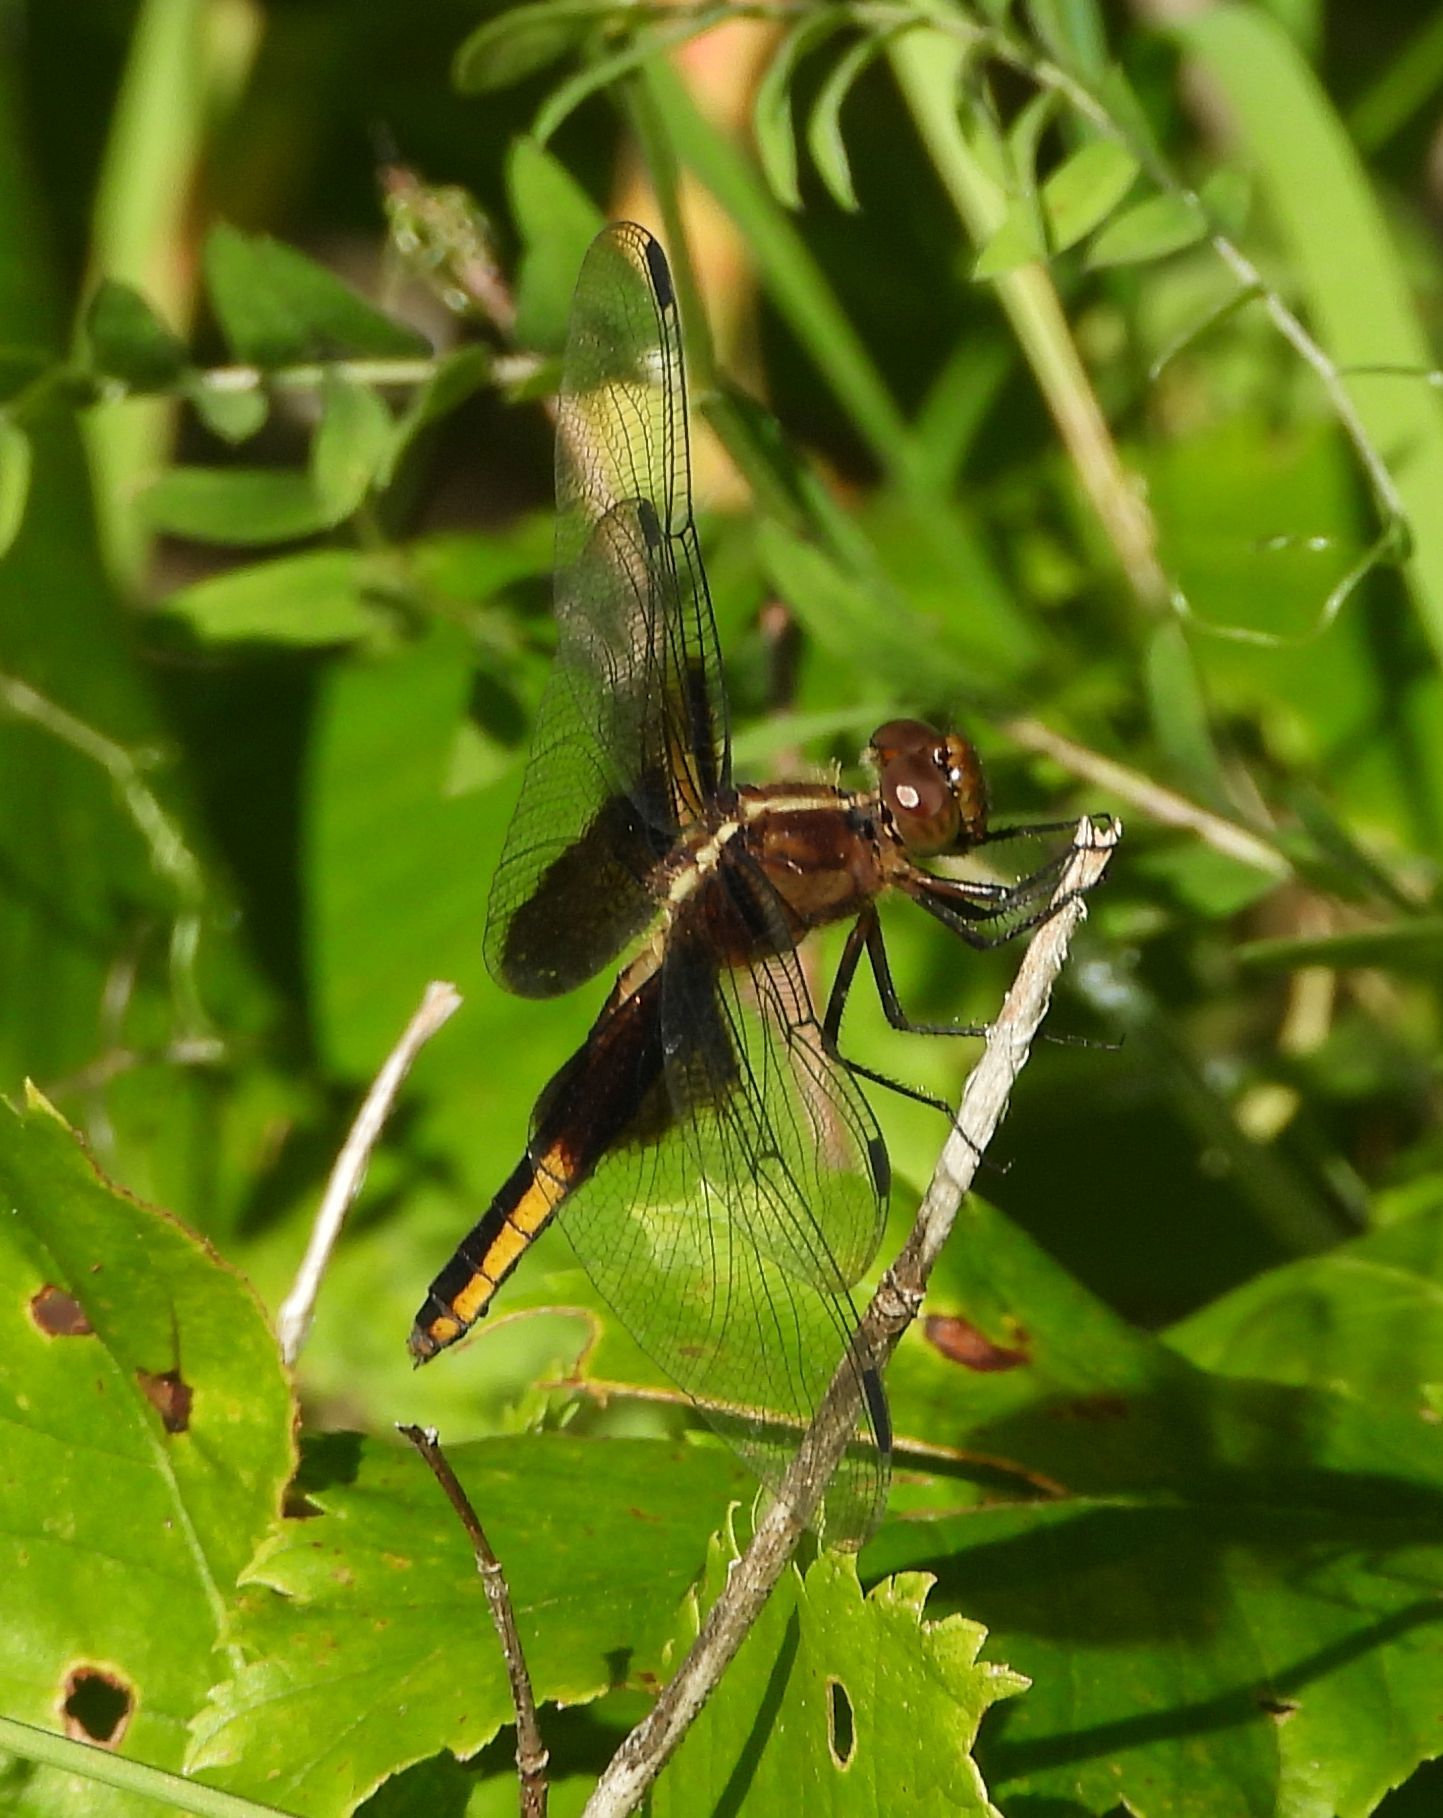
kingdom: Animalia
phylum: Arthropoda
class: Insecta
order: Odonata
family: Libellulidae
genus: Libellula
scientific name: Libellula luctuosa
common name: Widow skimmer
